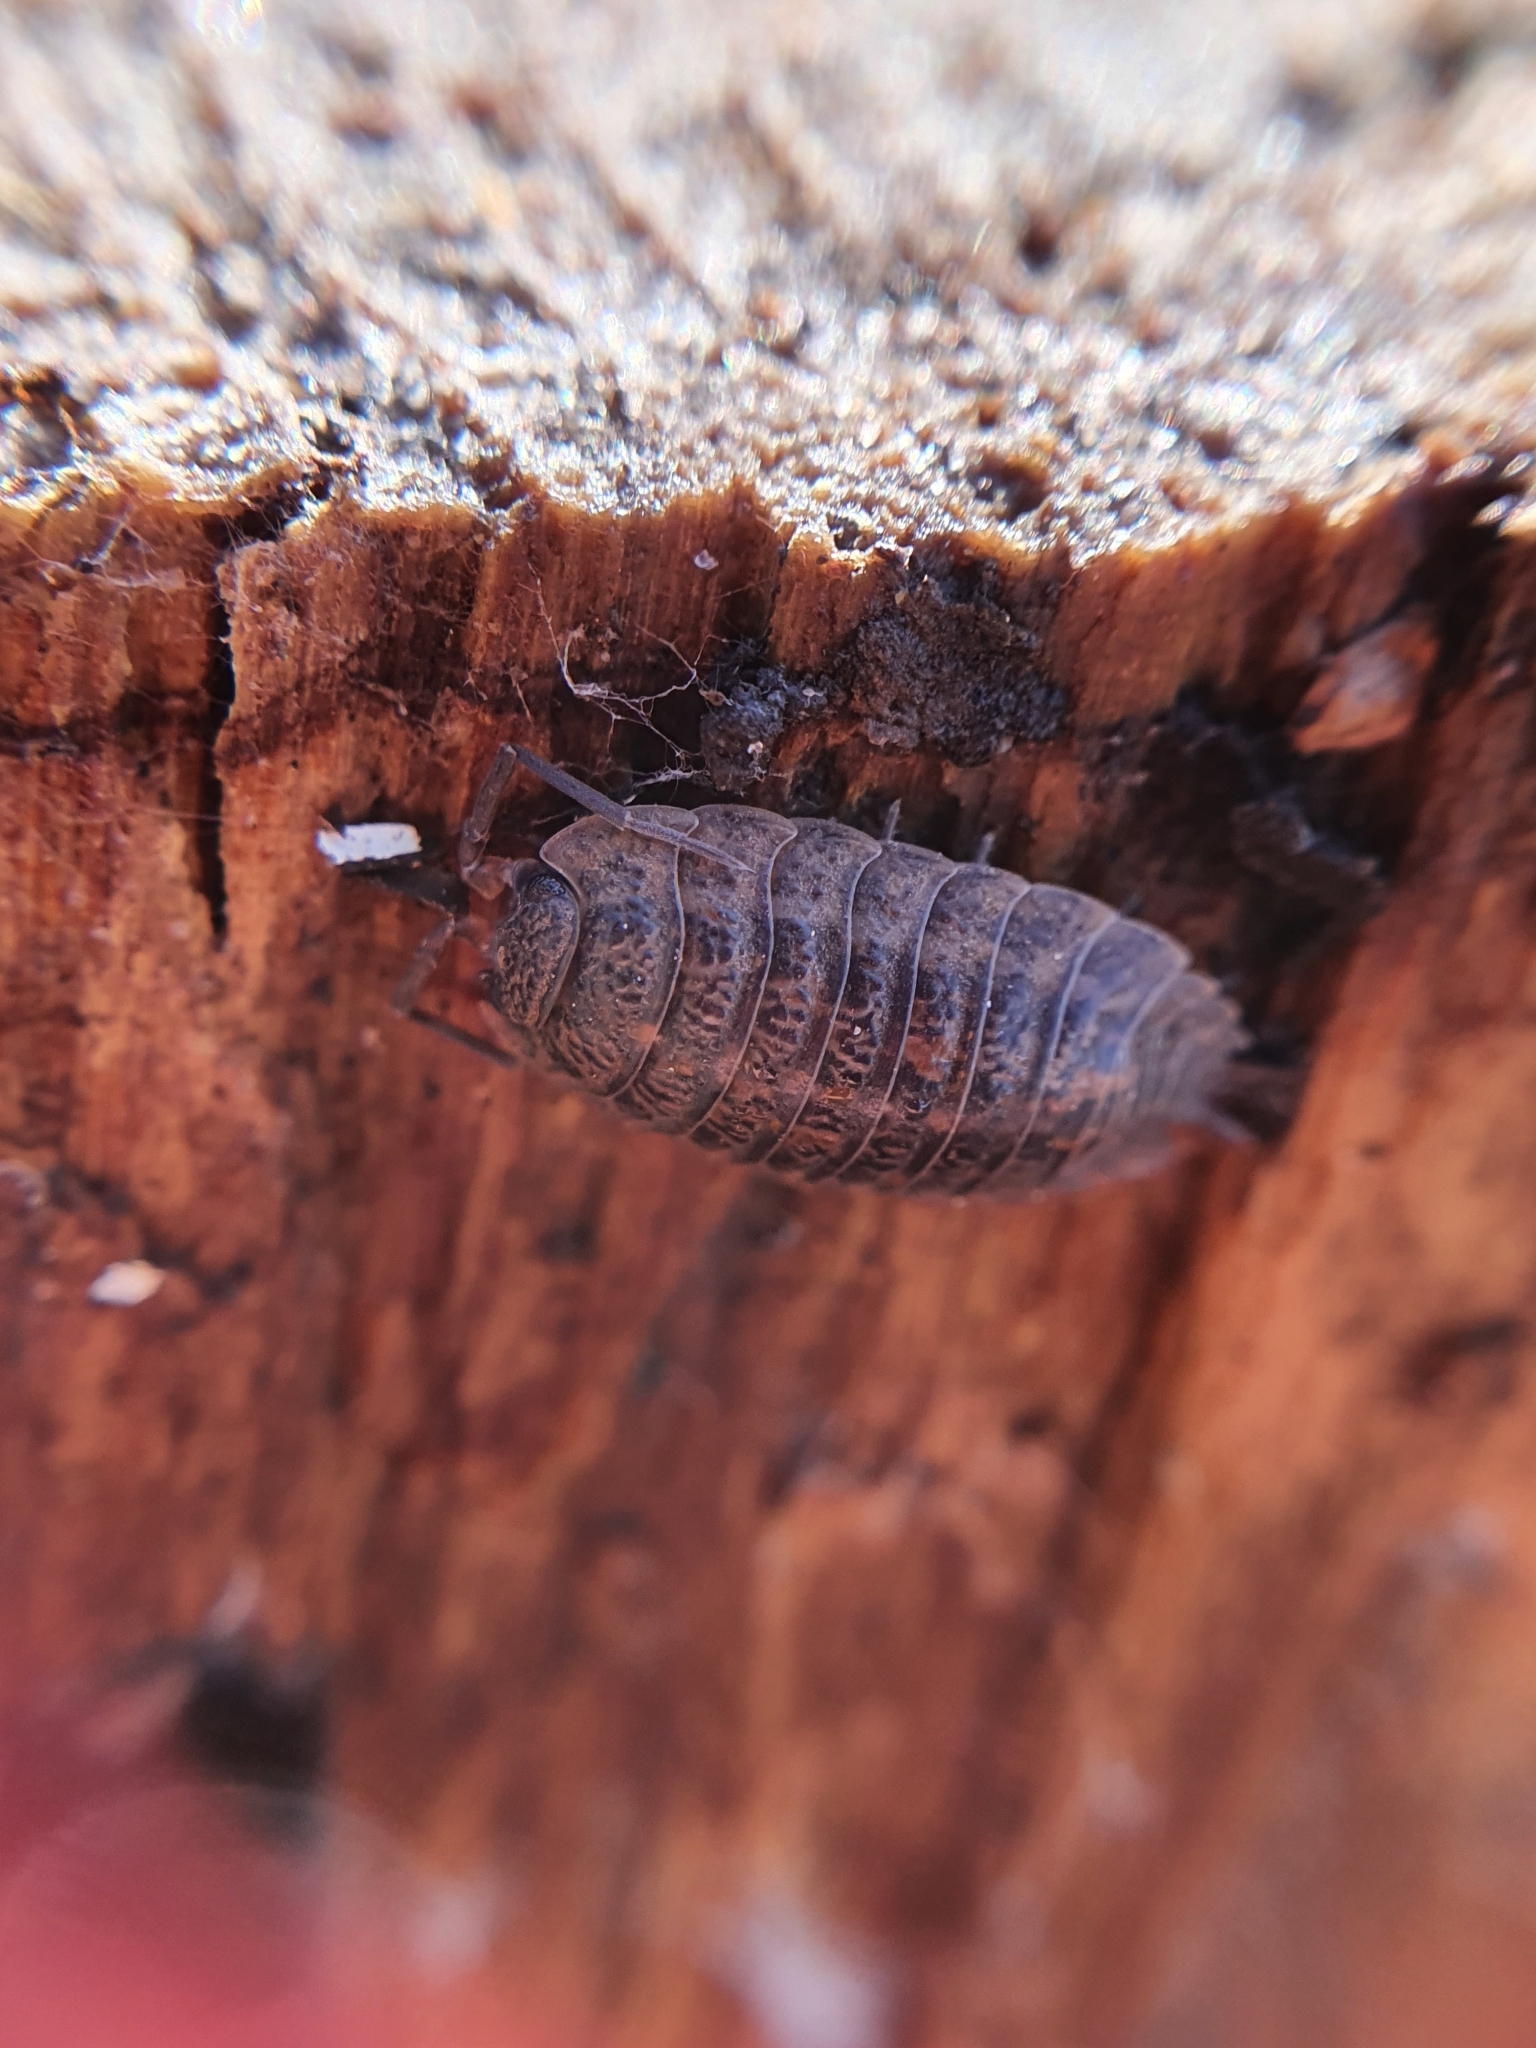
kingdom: Animalia
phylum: Arthropoda
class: Malacostraca
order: Isopoda
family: Trachelipodidae
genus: Trachelipus
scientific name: Trachelipus rathkii
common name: Isopod
